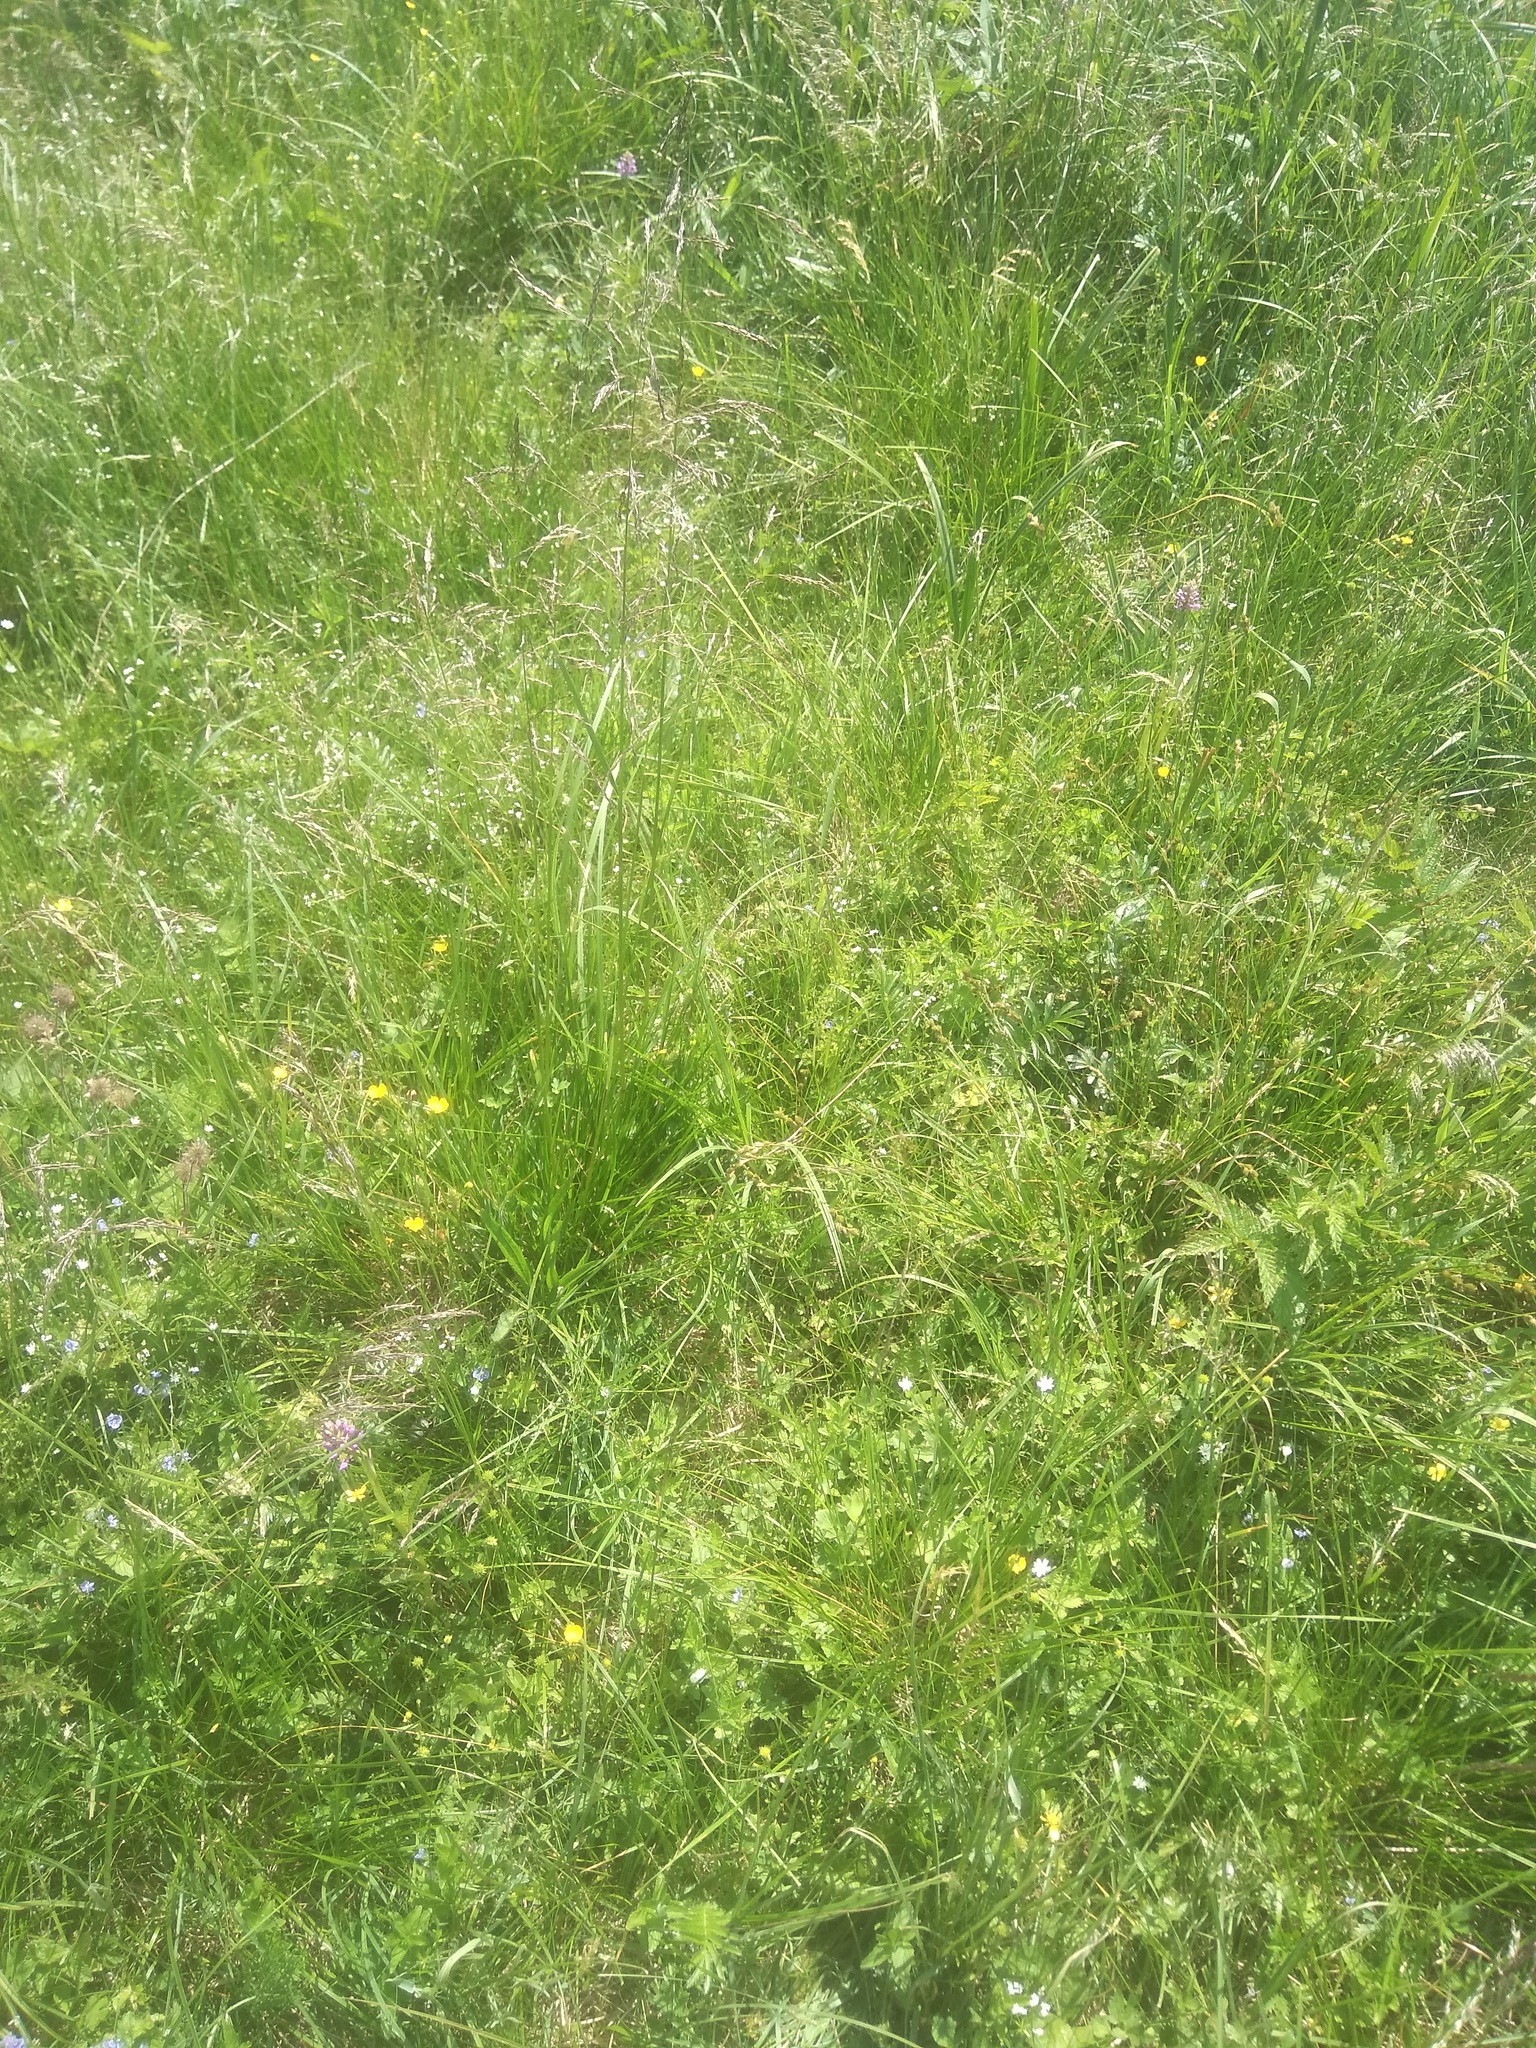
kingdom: Plantae
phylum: Tracheophyta
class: Liliopsida
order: Asparagales
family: Orchidaceae
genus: Dactylorhiza
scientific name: Dactylorhiza majalis
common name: Marsh orchid
